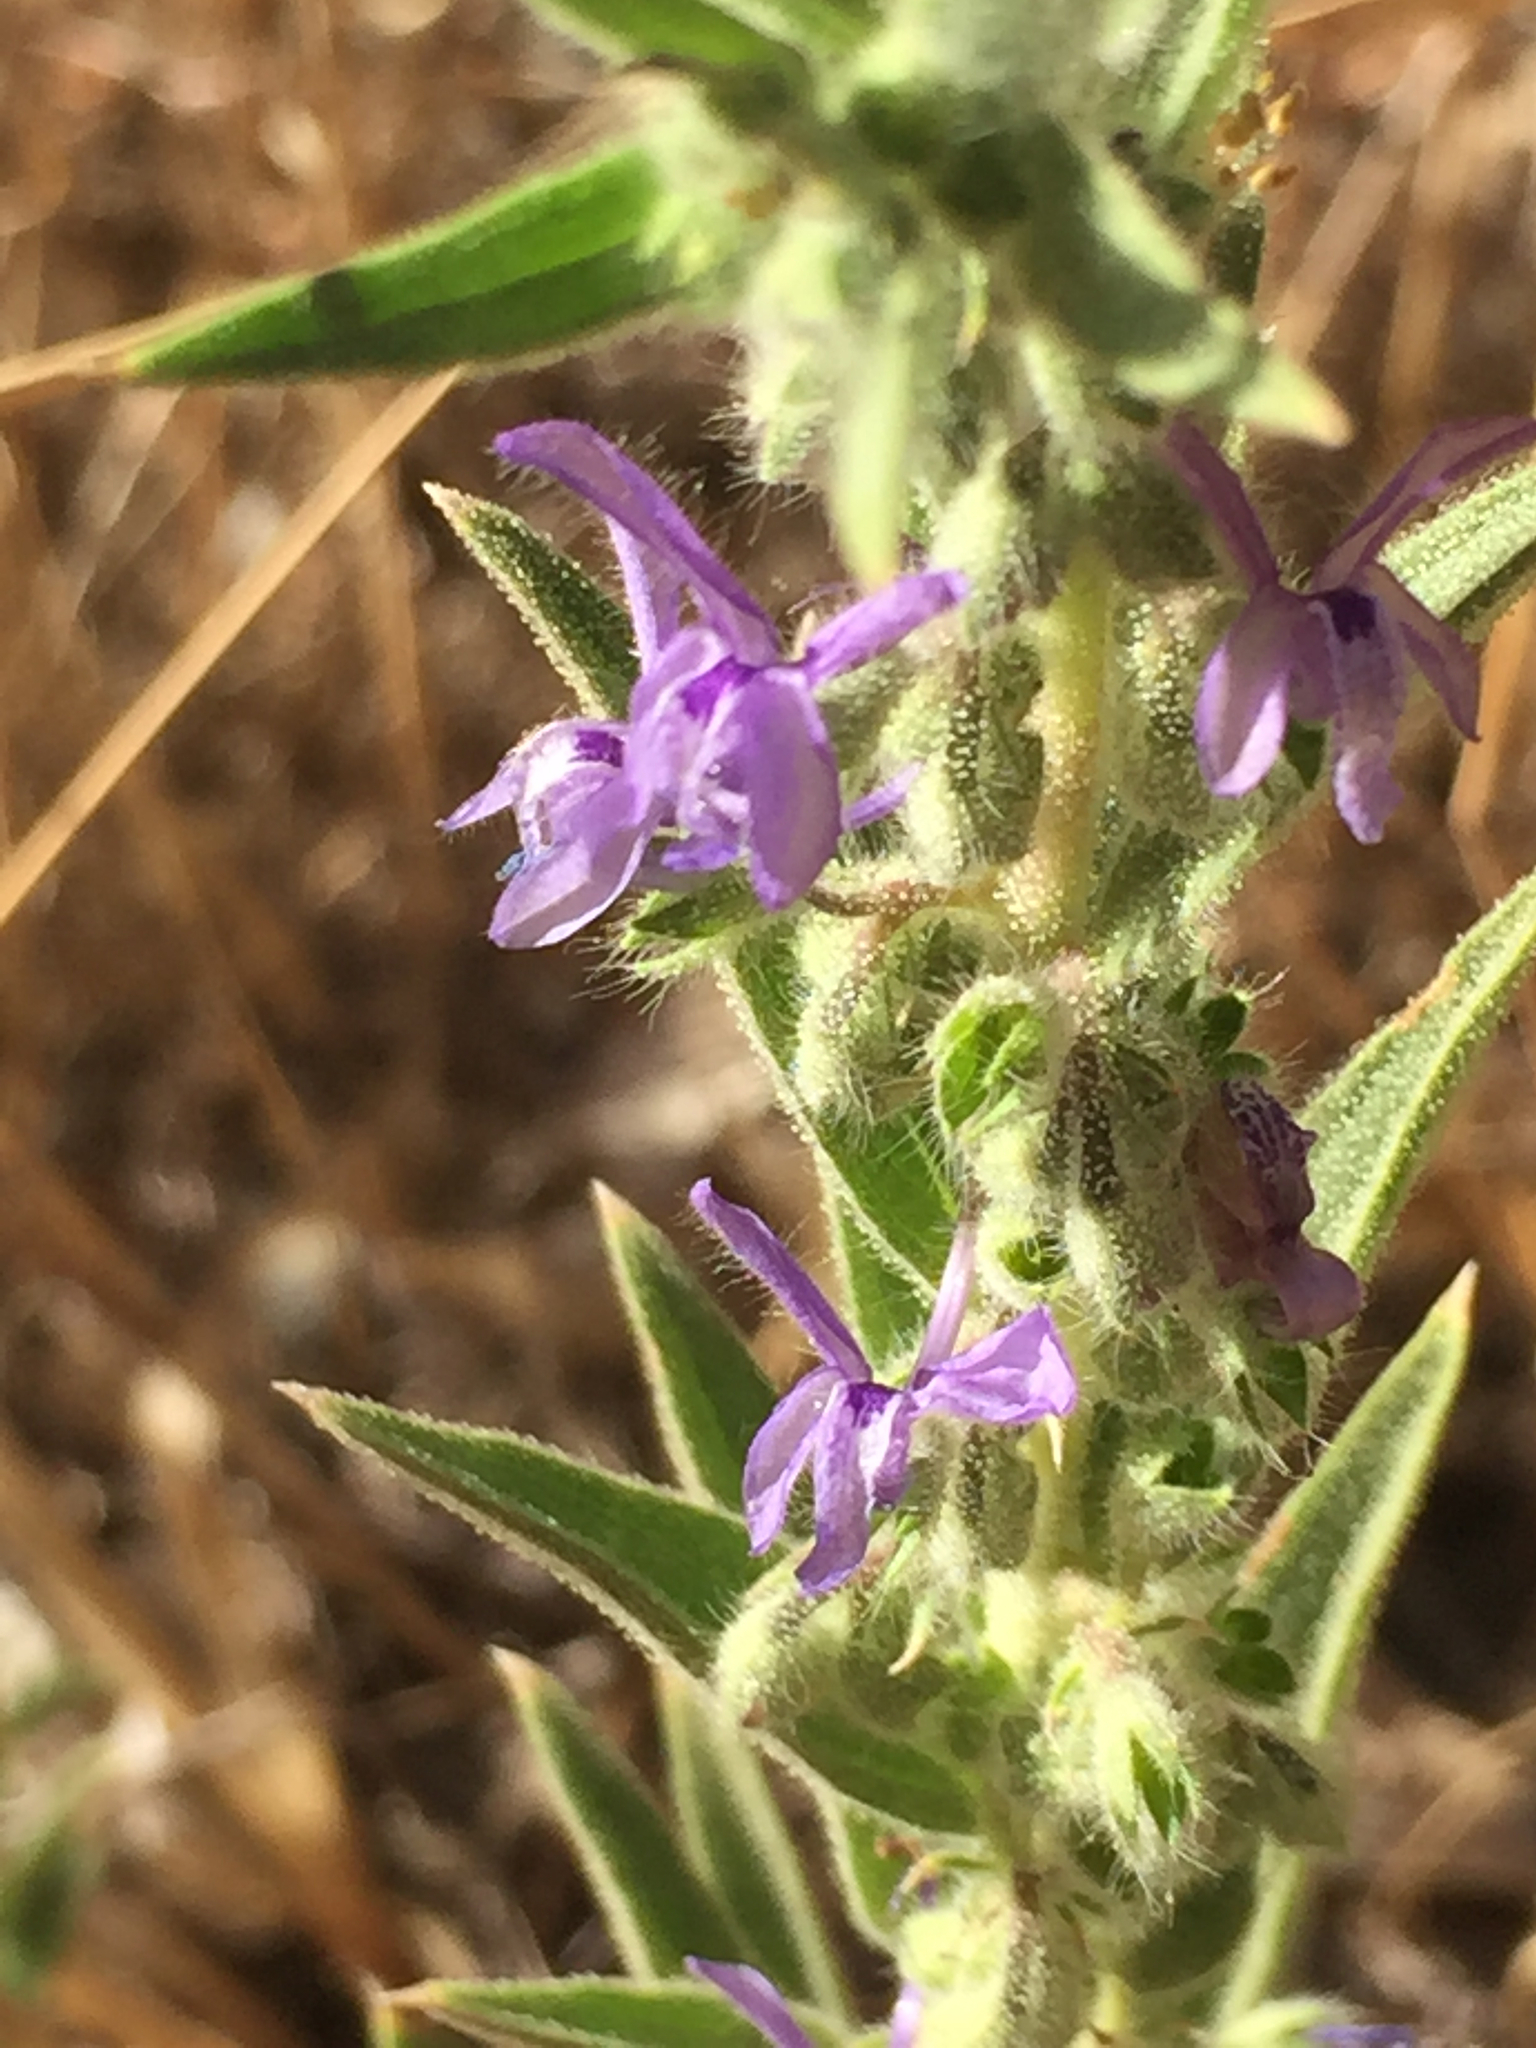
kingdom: Plantae
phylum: Tracheophyta
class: Magnoliopsida
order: Lamiales
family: Lamiaceae
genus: Trichostema
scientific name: Trichostema lanceolatum
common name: Vinegar-weed
